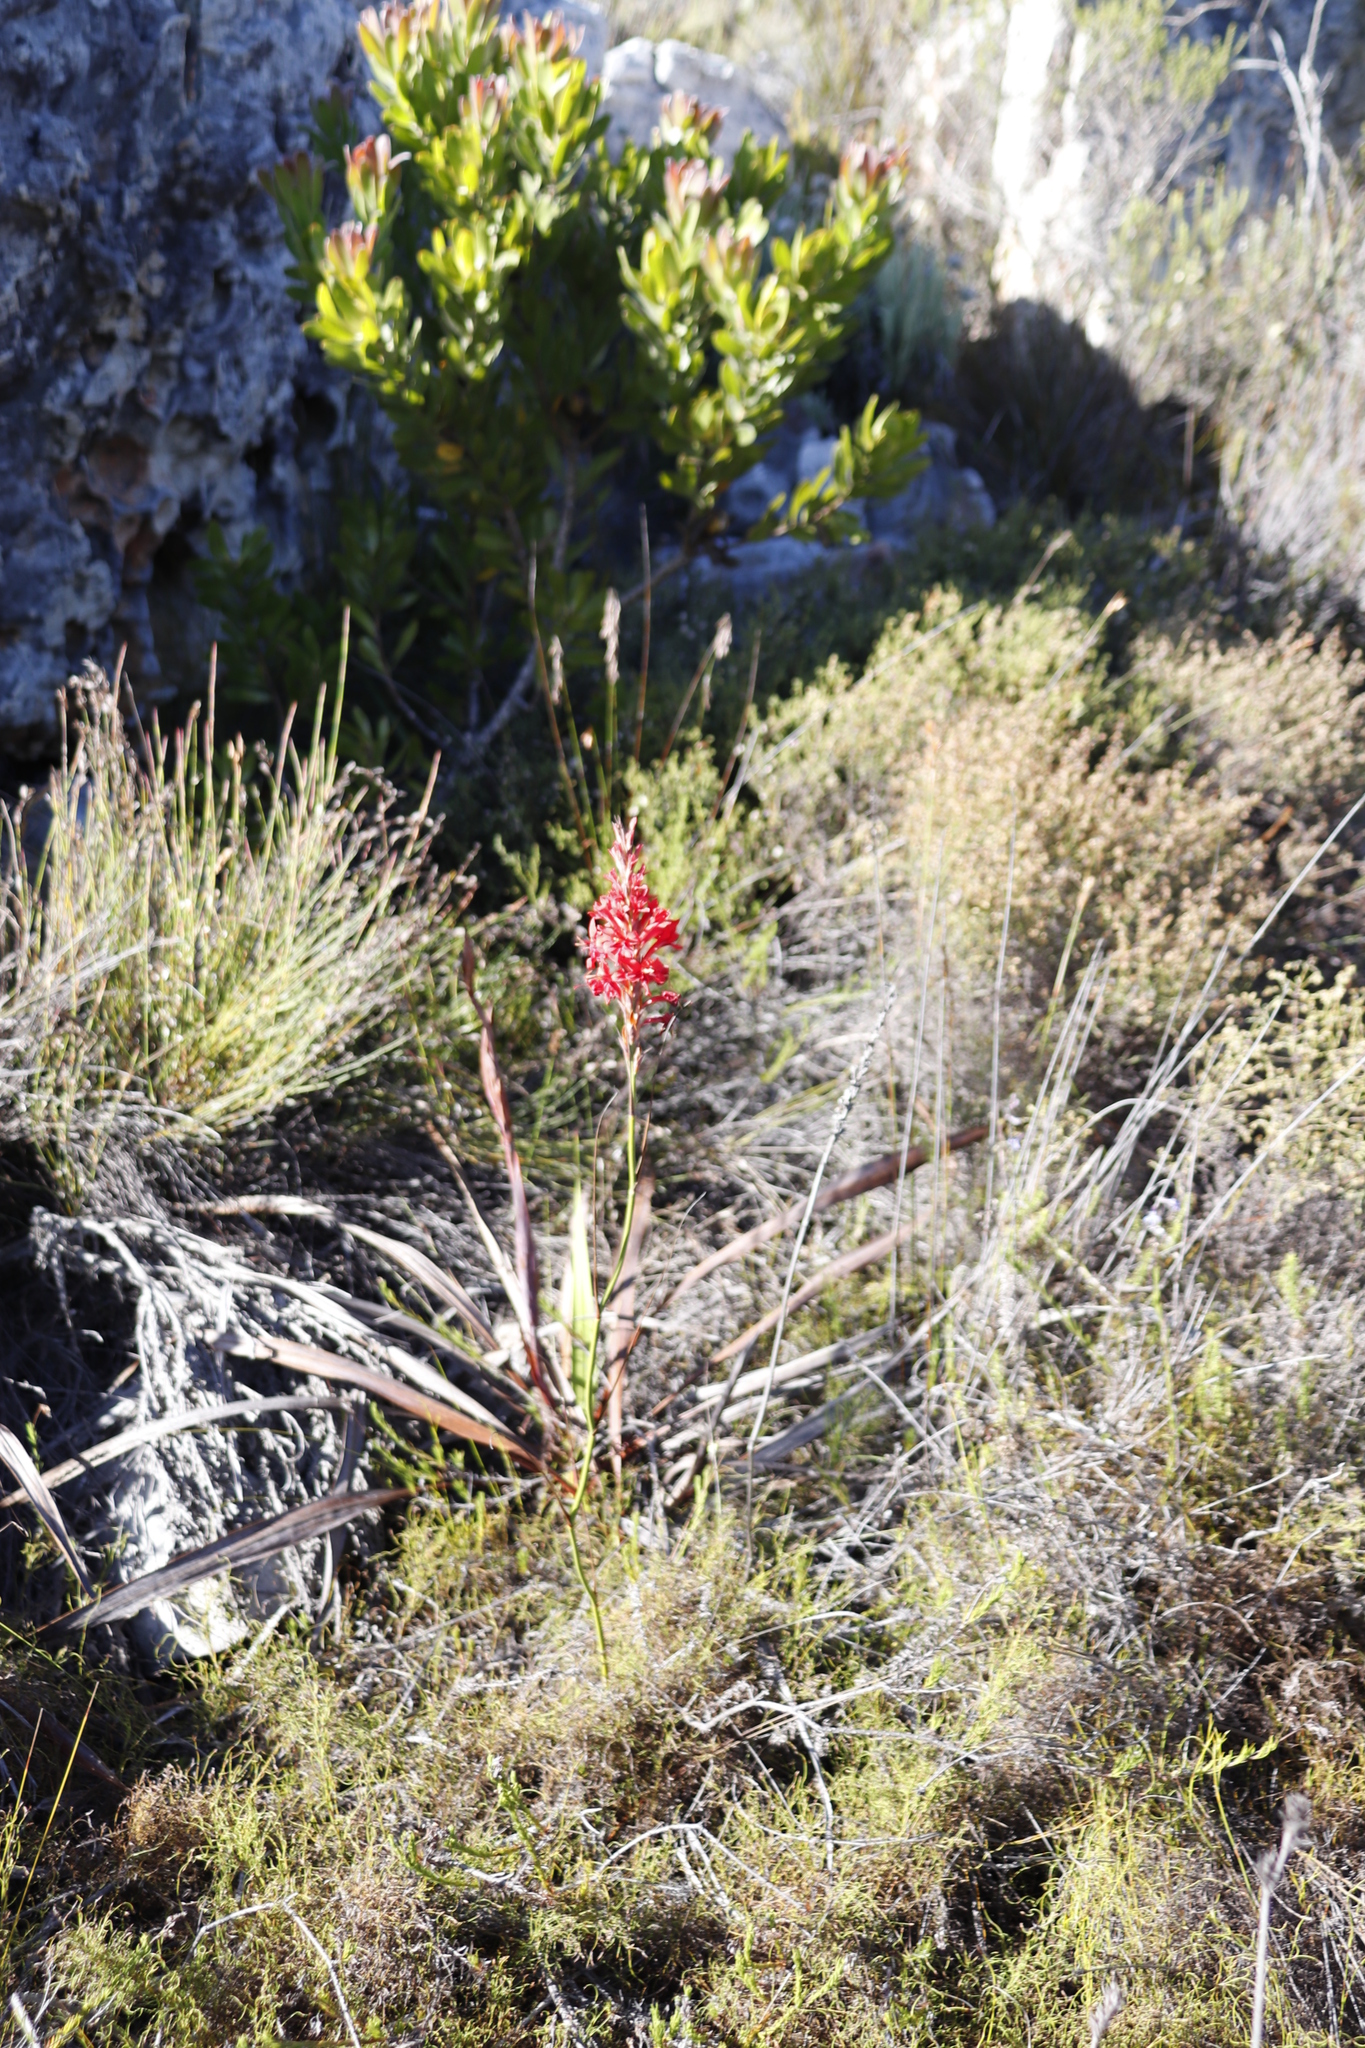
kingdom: Plantae
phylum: Tracheophyta
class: Liliopsida
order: Asparagales
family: Iridaceae
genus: Tritoniopsis
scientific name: Tritoniopsis triticea
